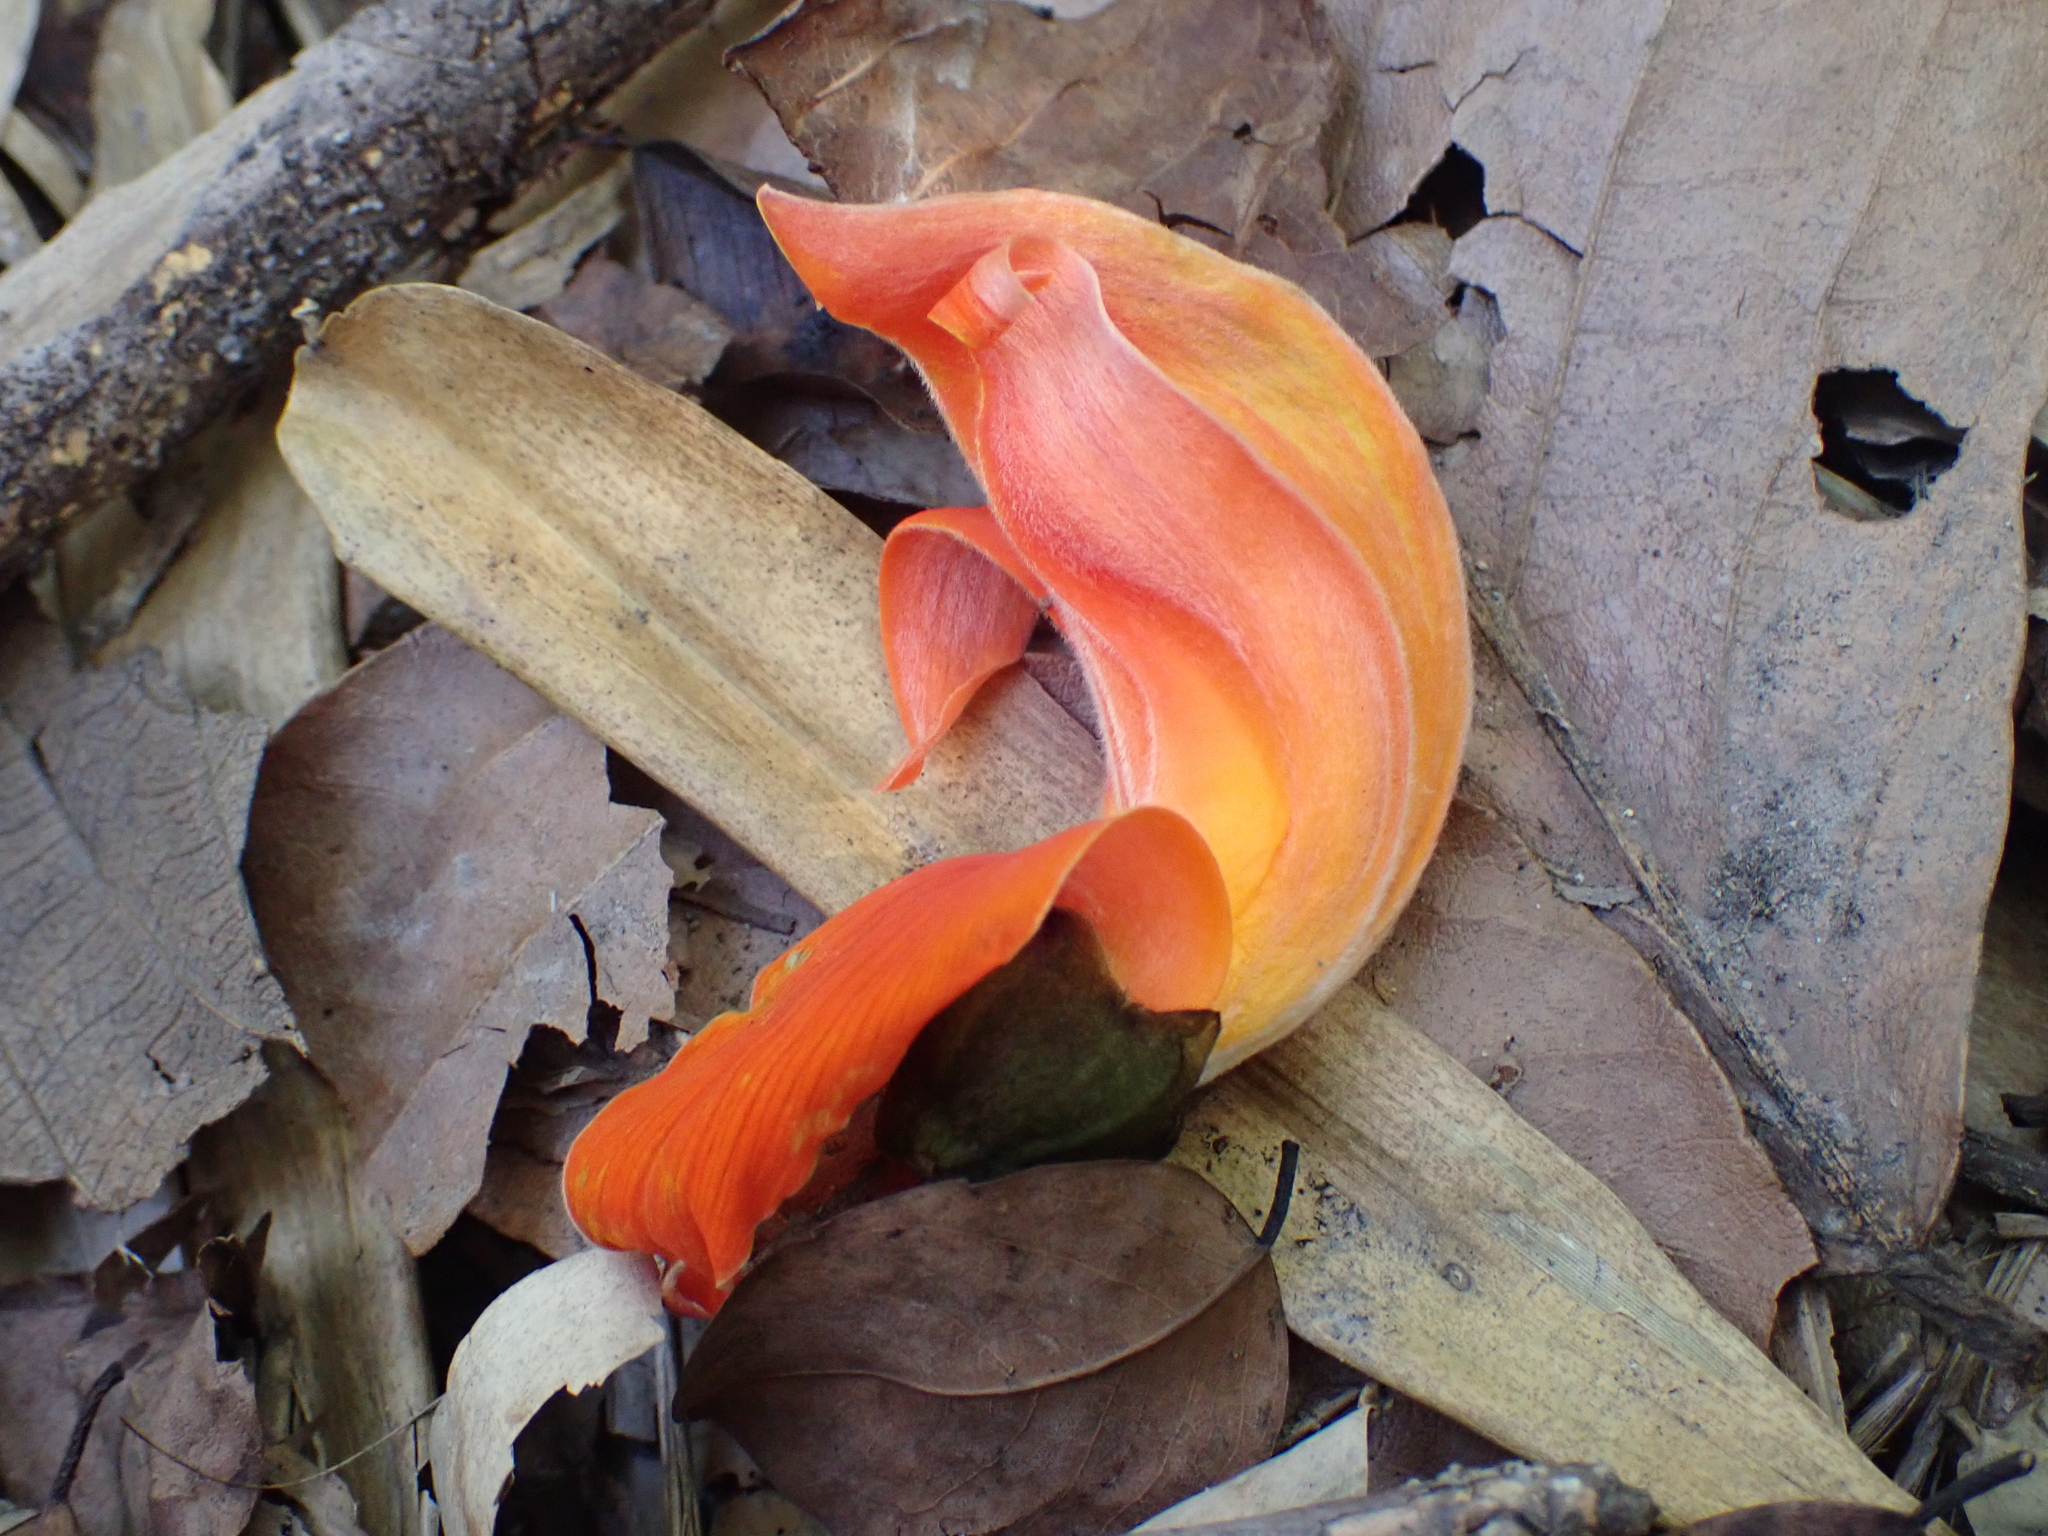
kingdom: Plantae
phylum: Tracheophyta
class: Magnoliopsida
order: Fabales
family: Fabaceae
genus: Butea
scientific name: Butea monosperma
